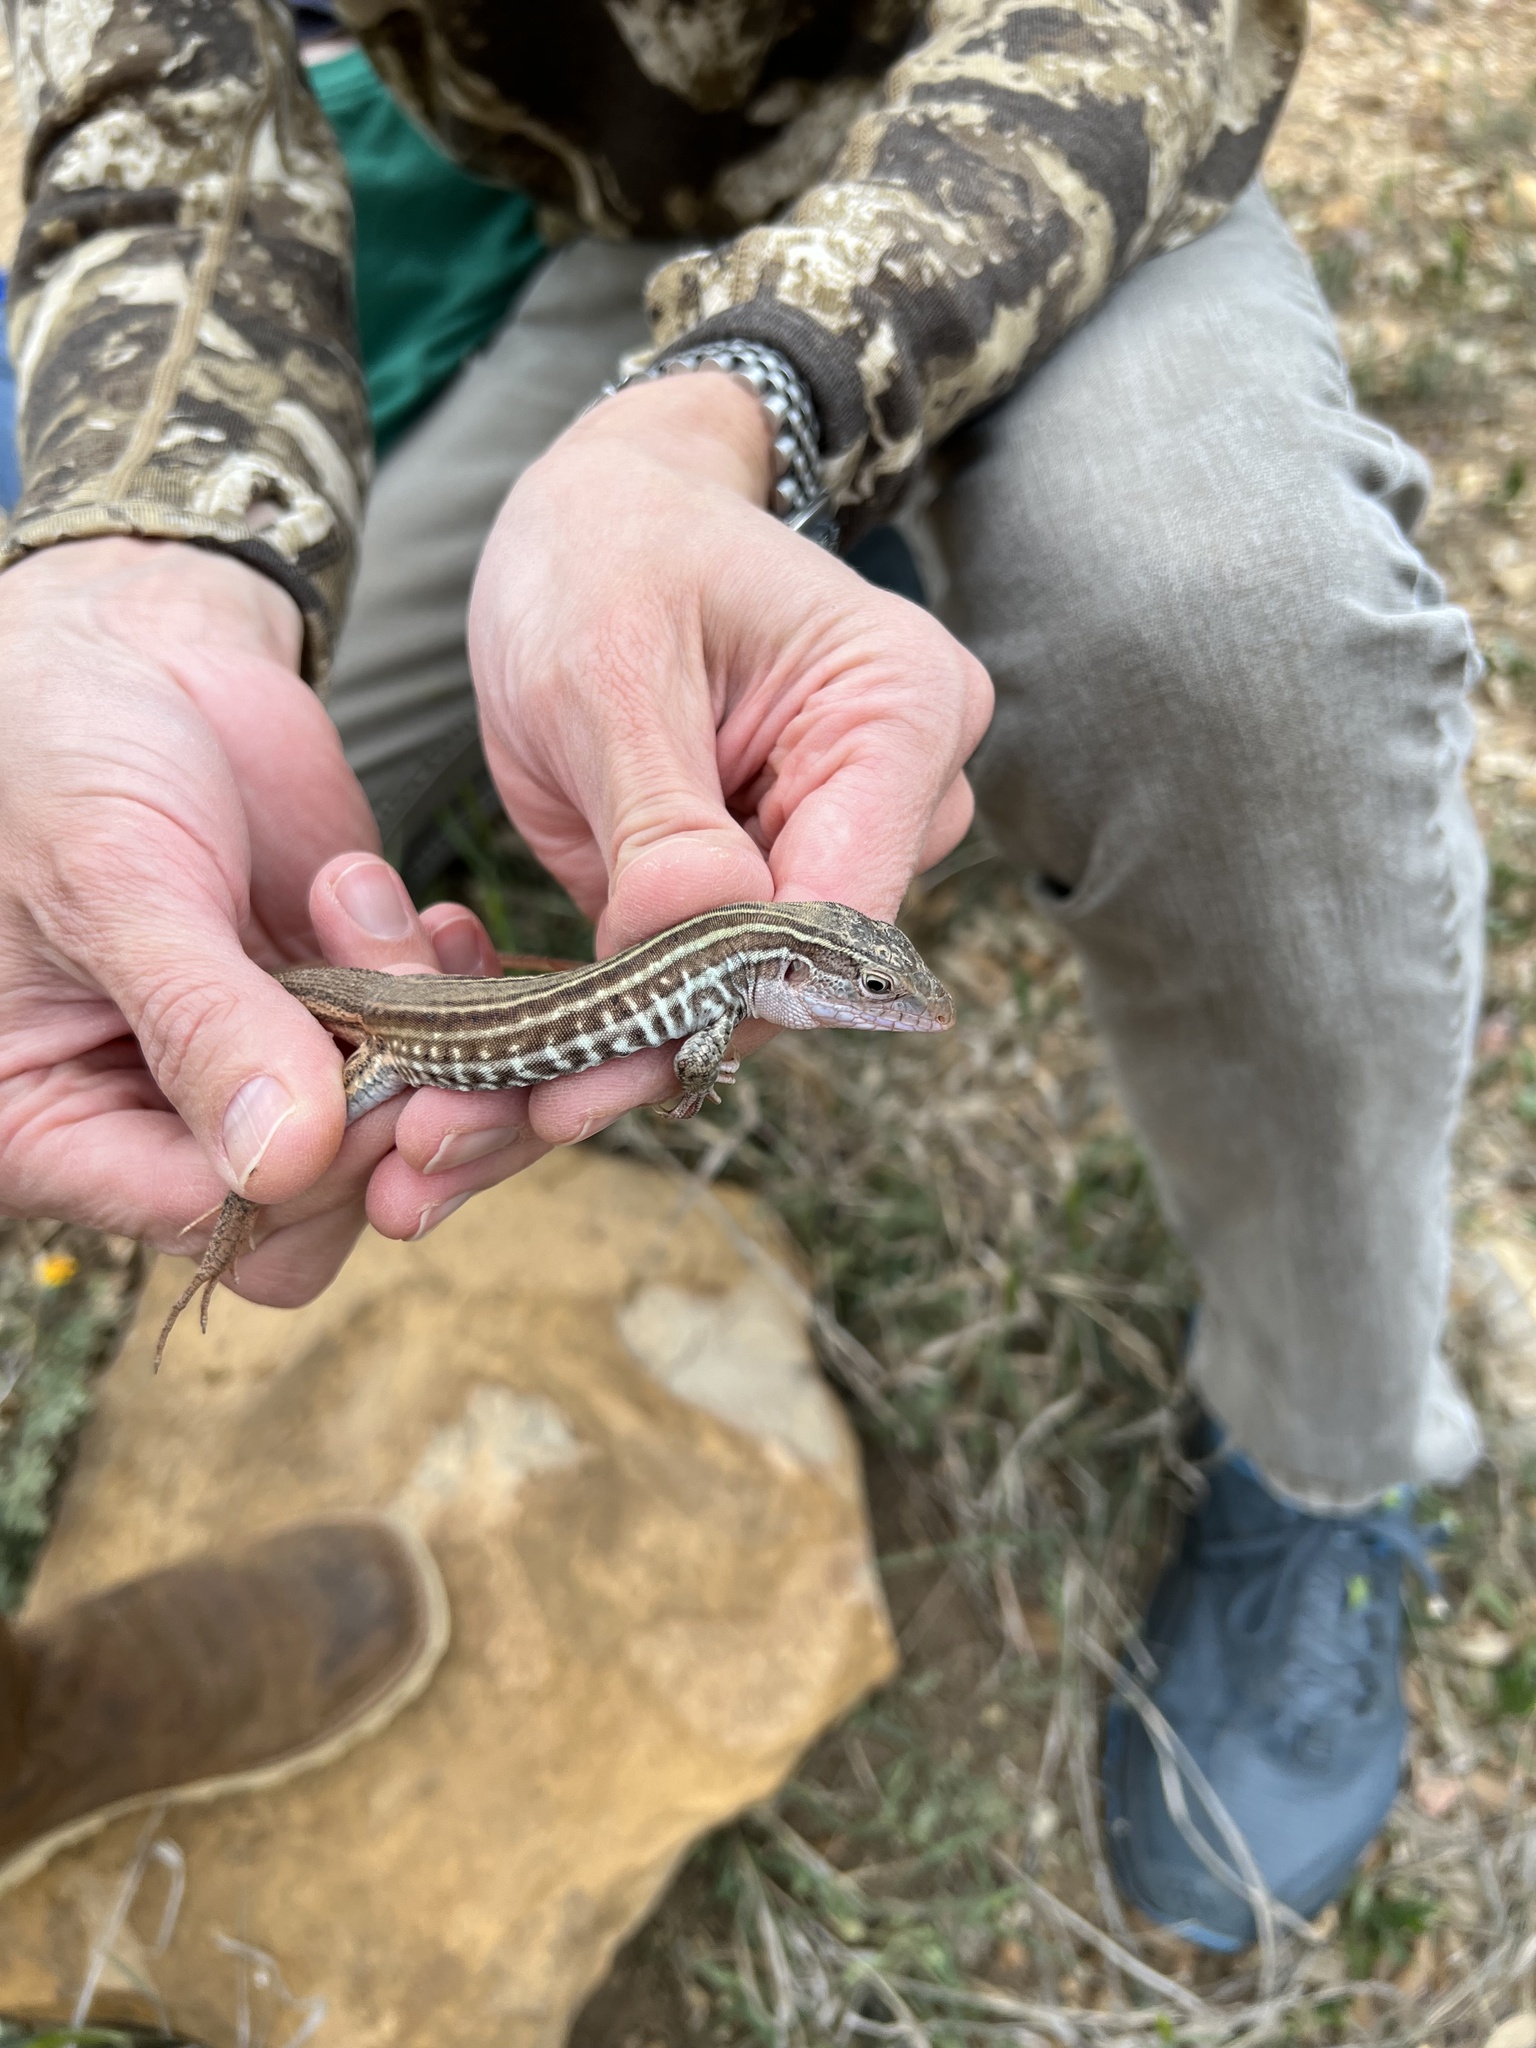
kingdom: Animalia
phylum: Chordata
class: Squamata
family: Teiidae
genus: Aspidoscelis
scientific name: Aspidoscelis gularis
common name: Eastern spotted whiptail
